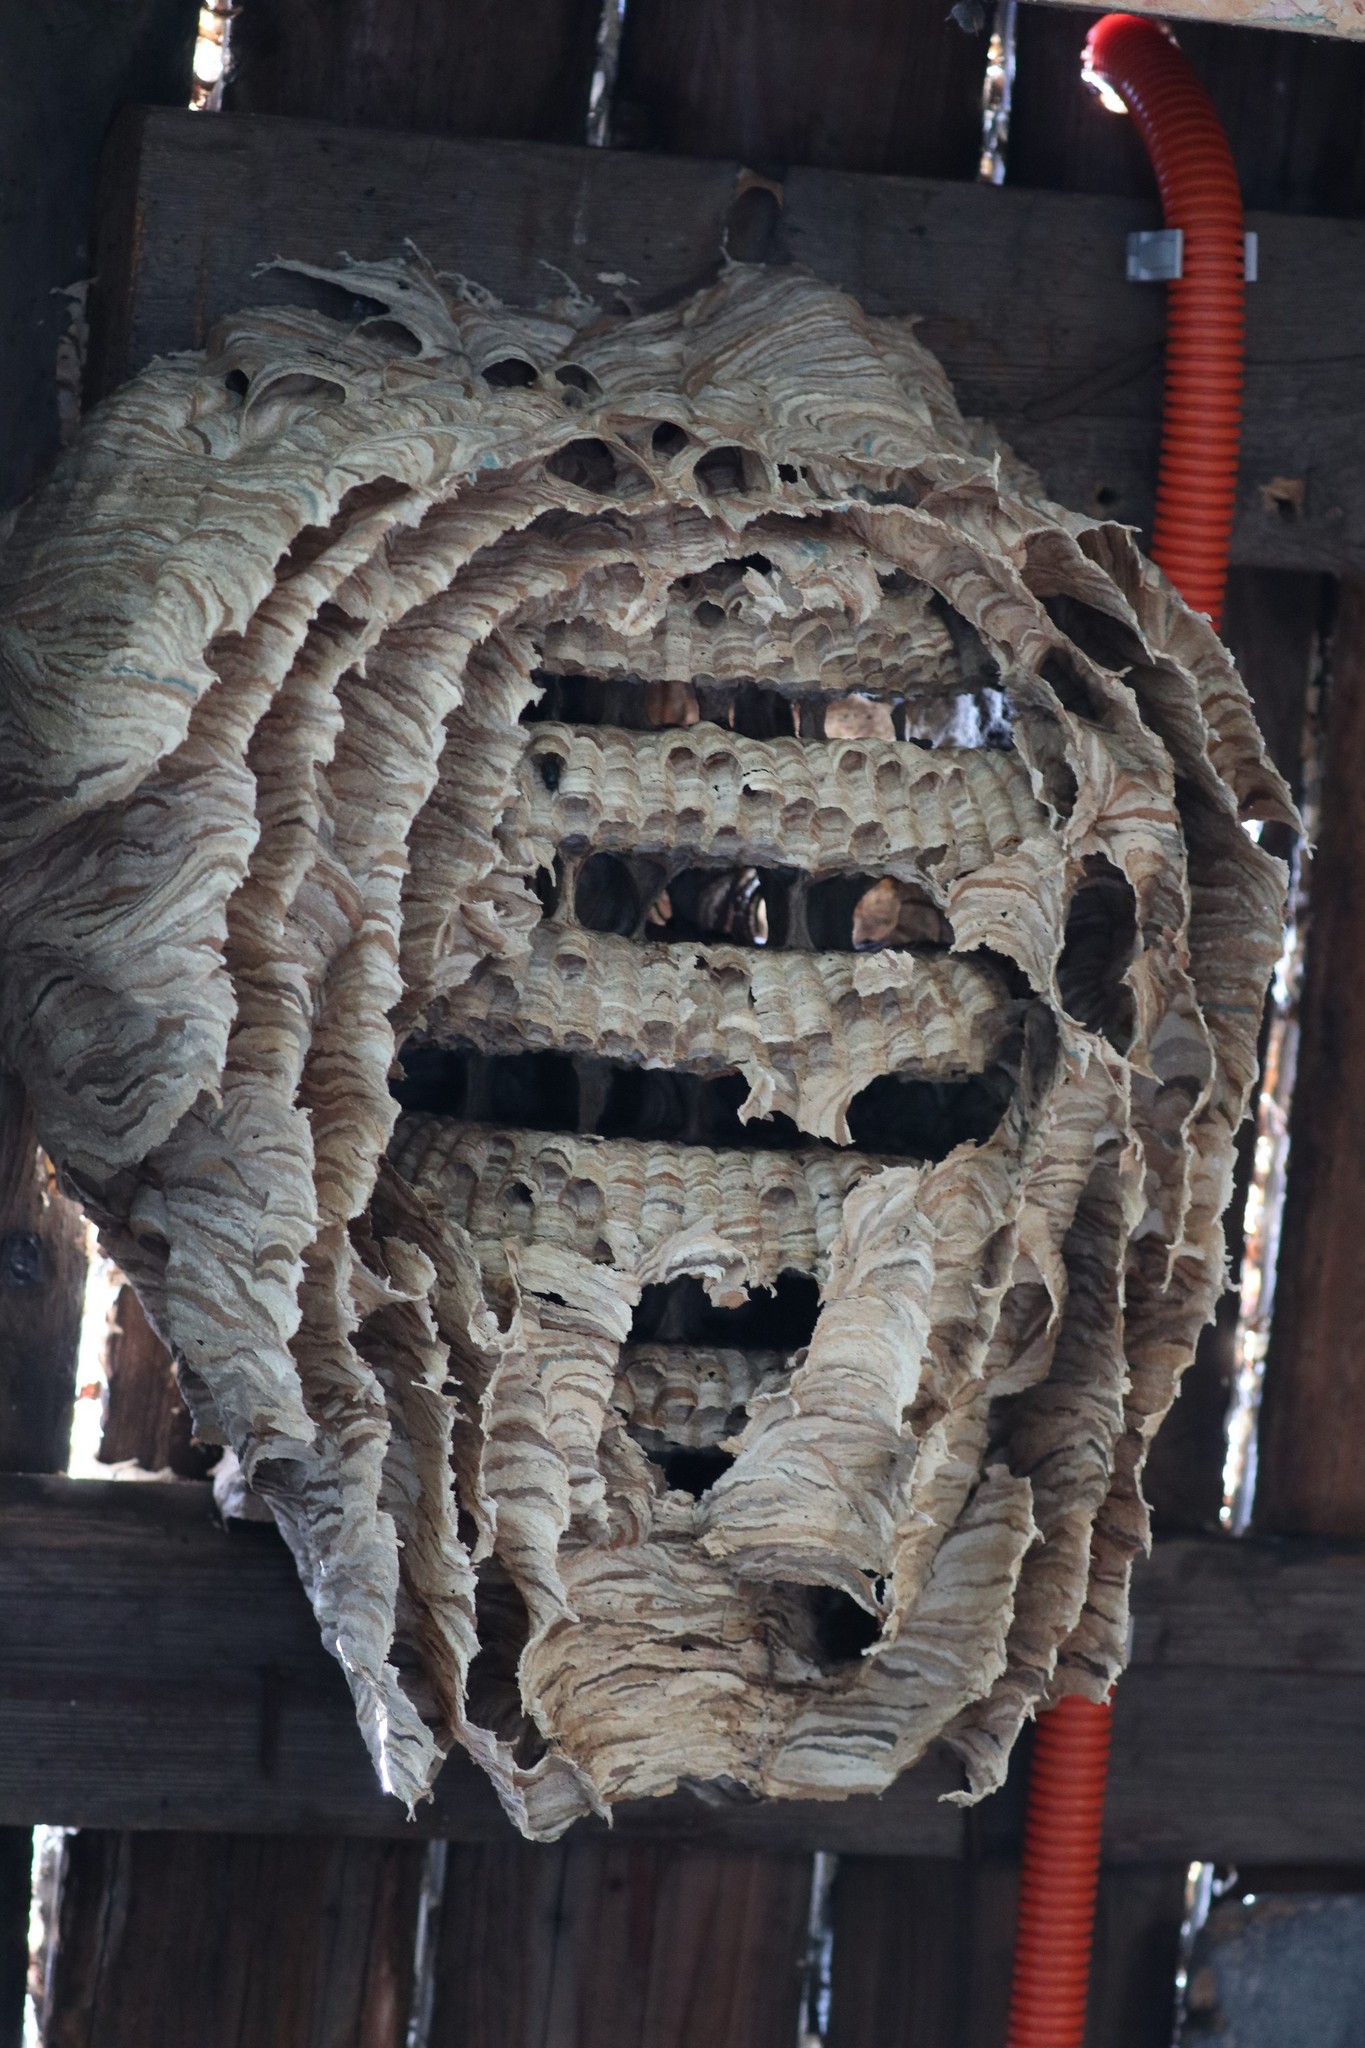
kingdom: Animalia
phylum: Arthropoda
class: Insecta
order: Hymenoptera
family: Vespidae
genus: Vespa
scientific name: Vespa crabro
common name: Hornet
